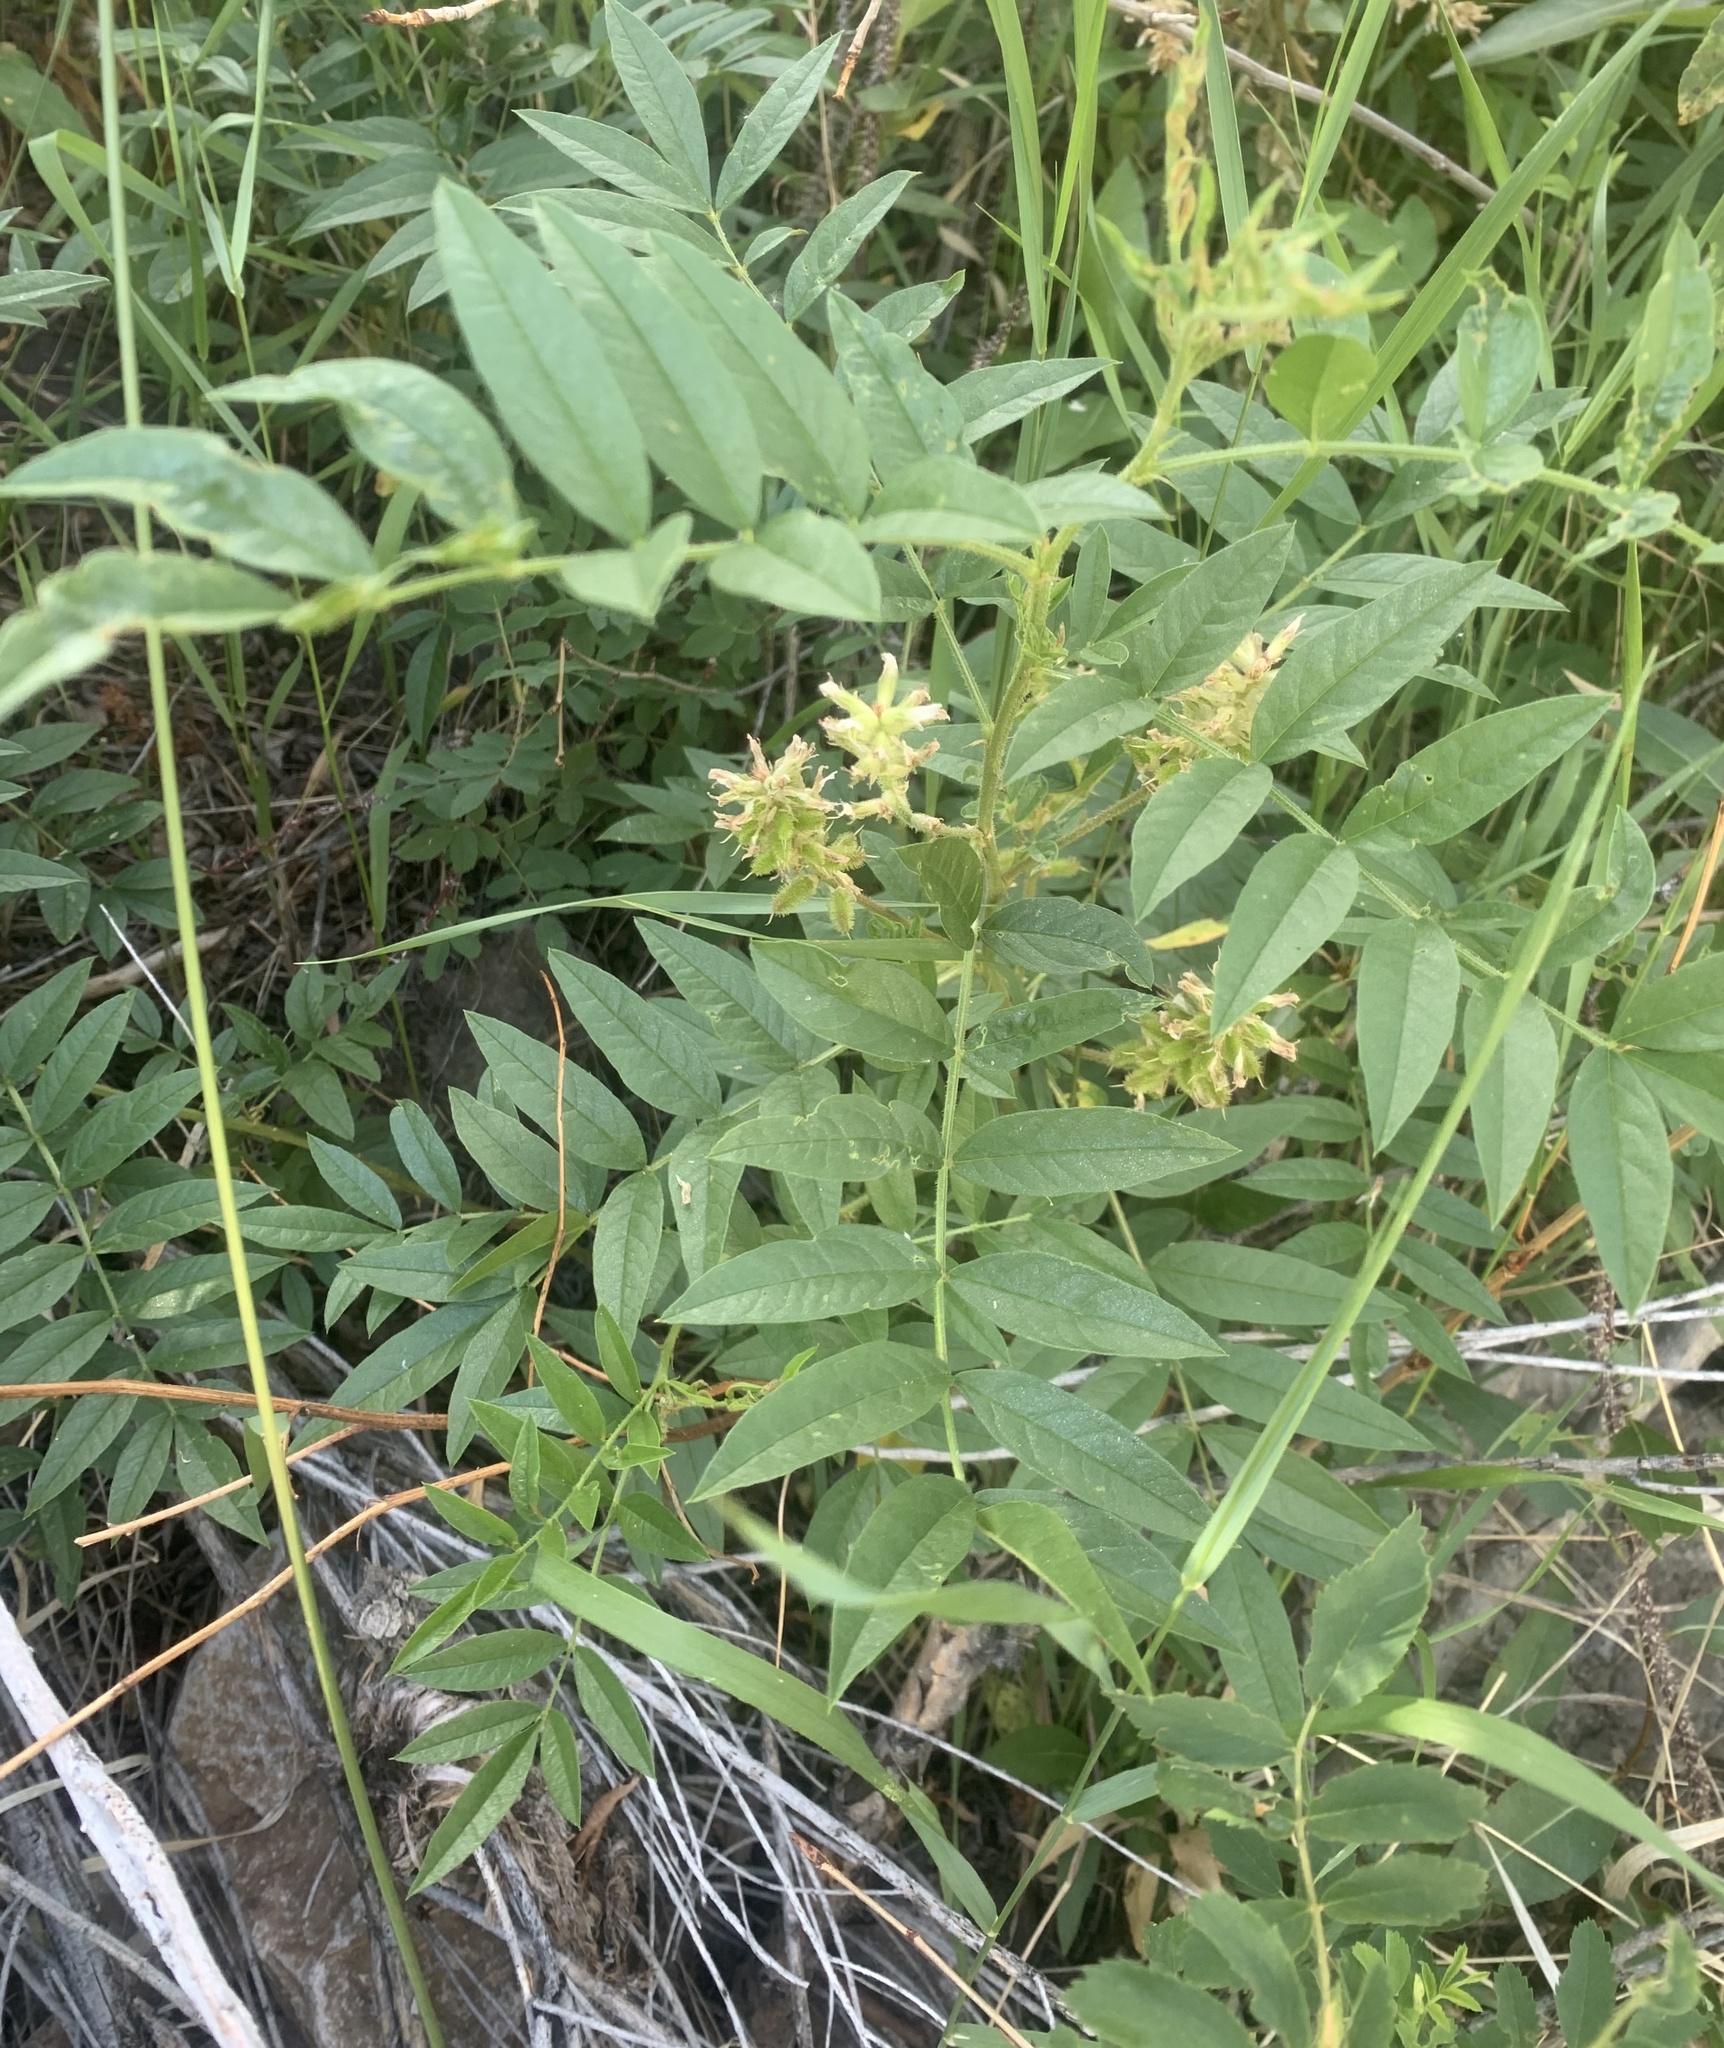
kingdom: Plantae
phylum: Tracheophyta
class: Magnoliopsida
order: Fabales
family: Fabaceae
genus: Glycyrrhiza
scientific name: Glycyrrhiza lepidota
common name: American liquorice
